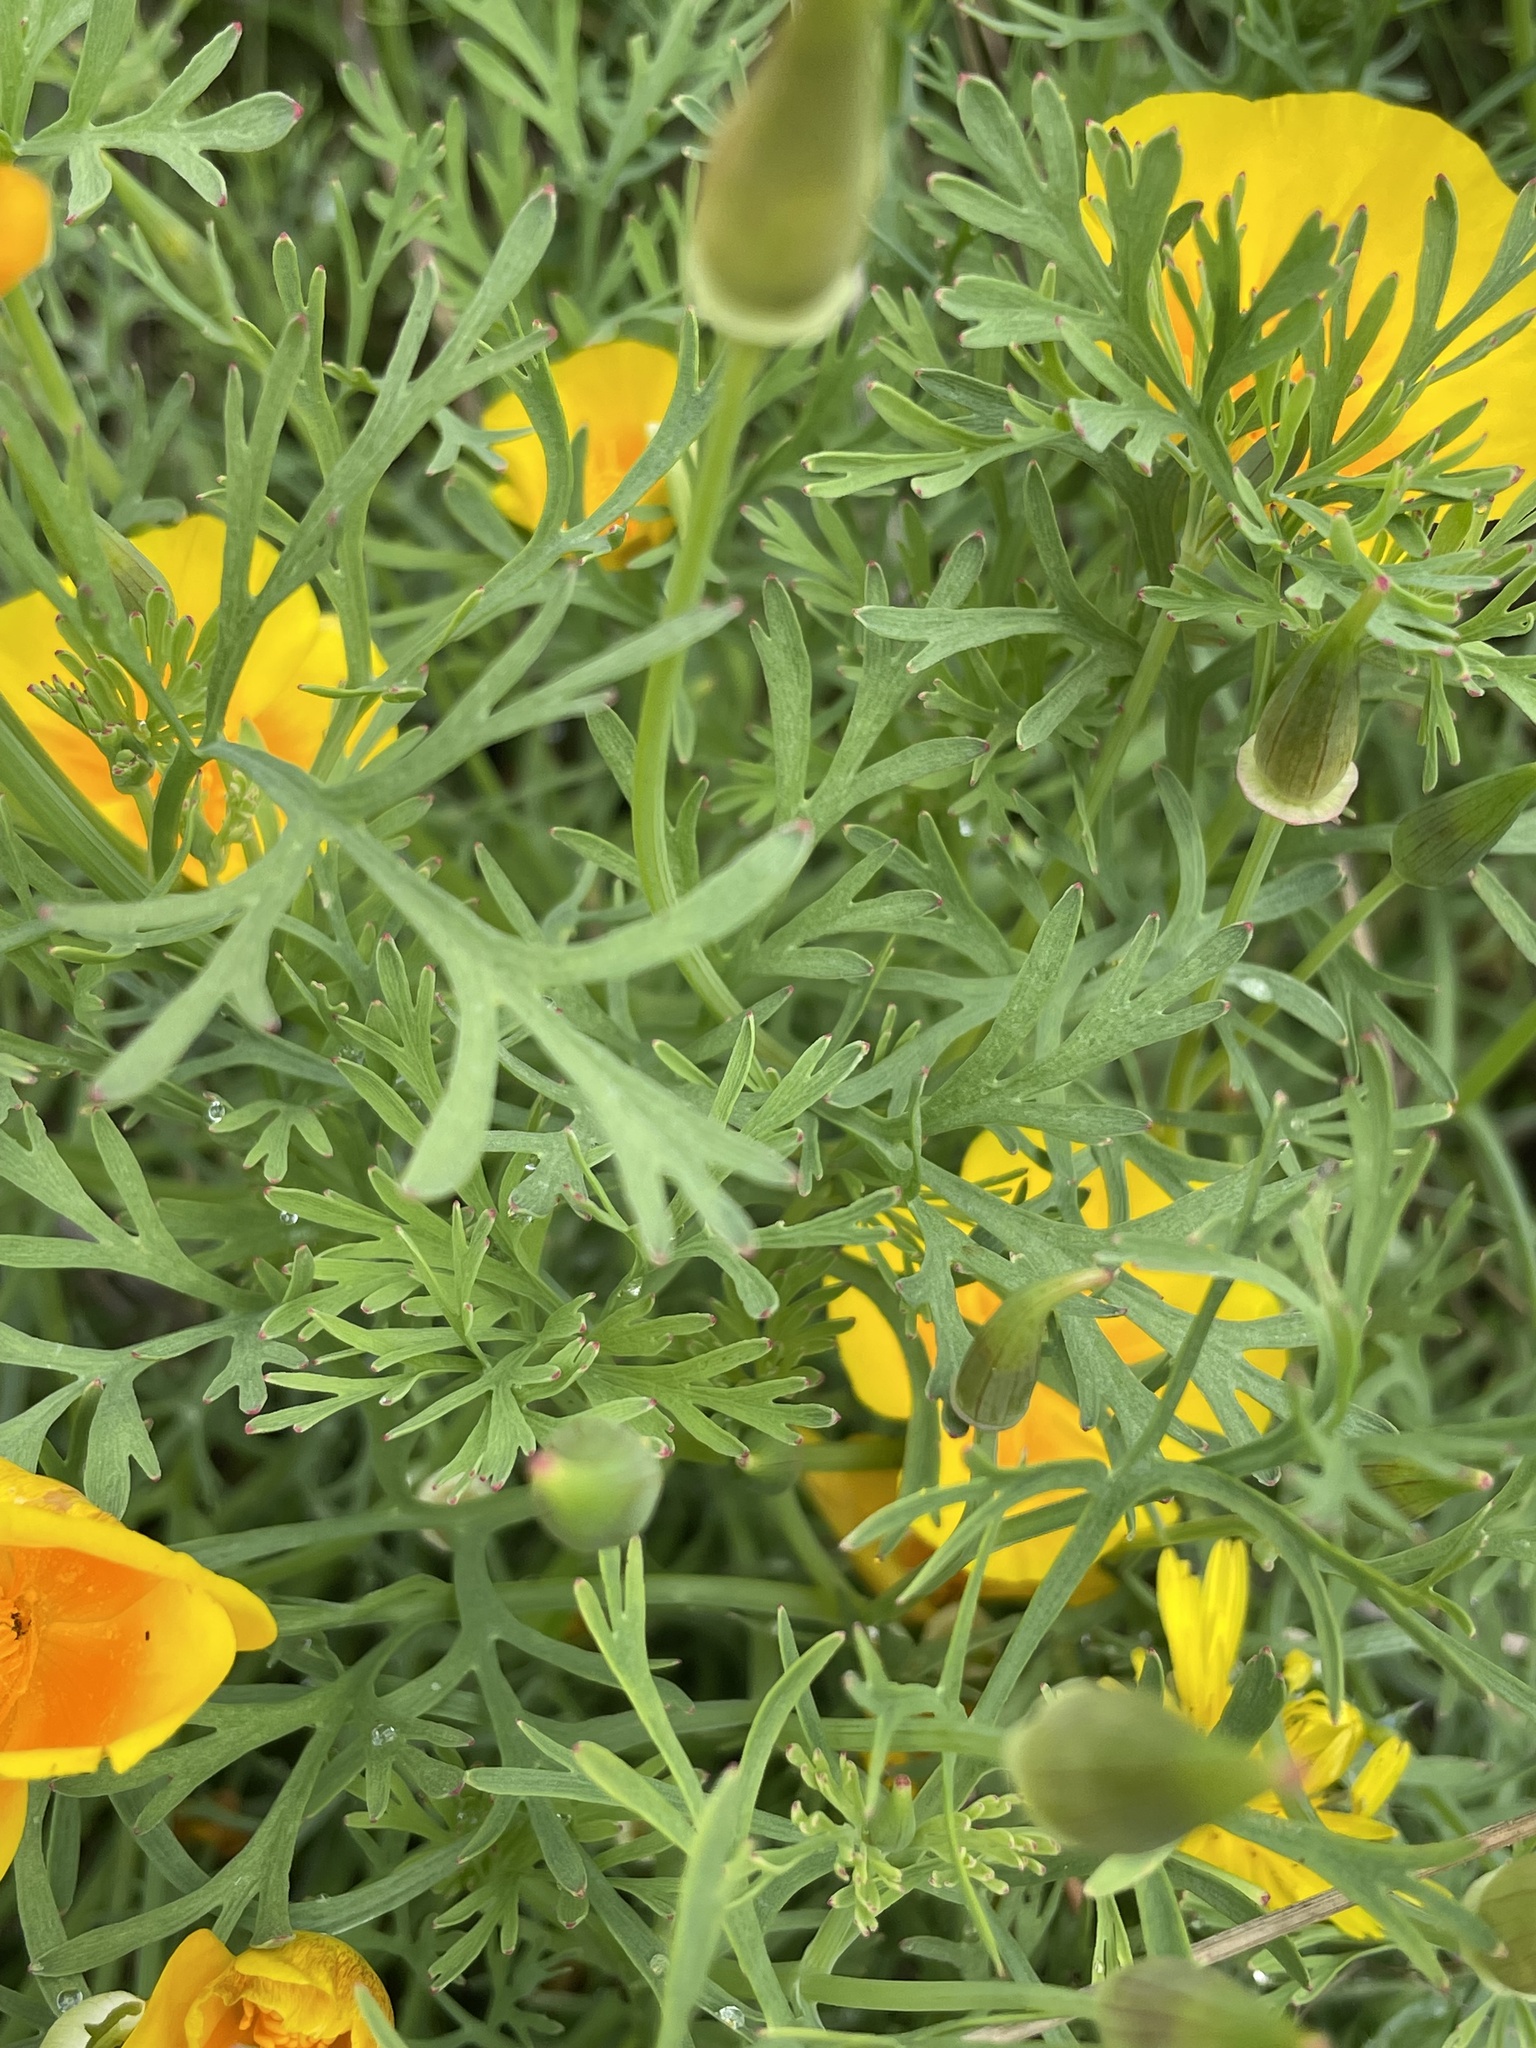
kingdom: Plantae
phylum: Tracheophyta
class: Magnoliopsida
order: Ranunculales
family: Papaveraceae
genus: Eschscholzia
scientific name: Eschscholzia californica
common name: California poppy
